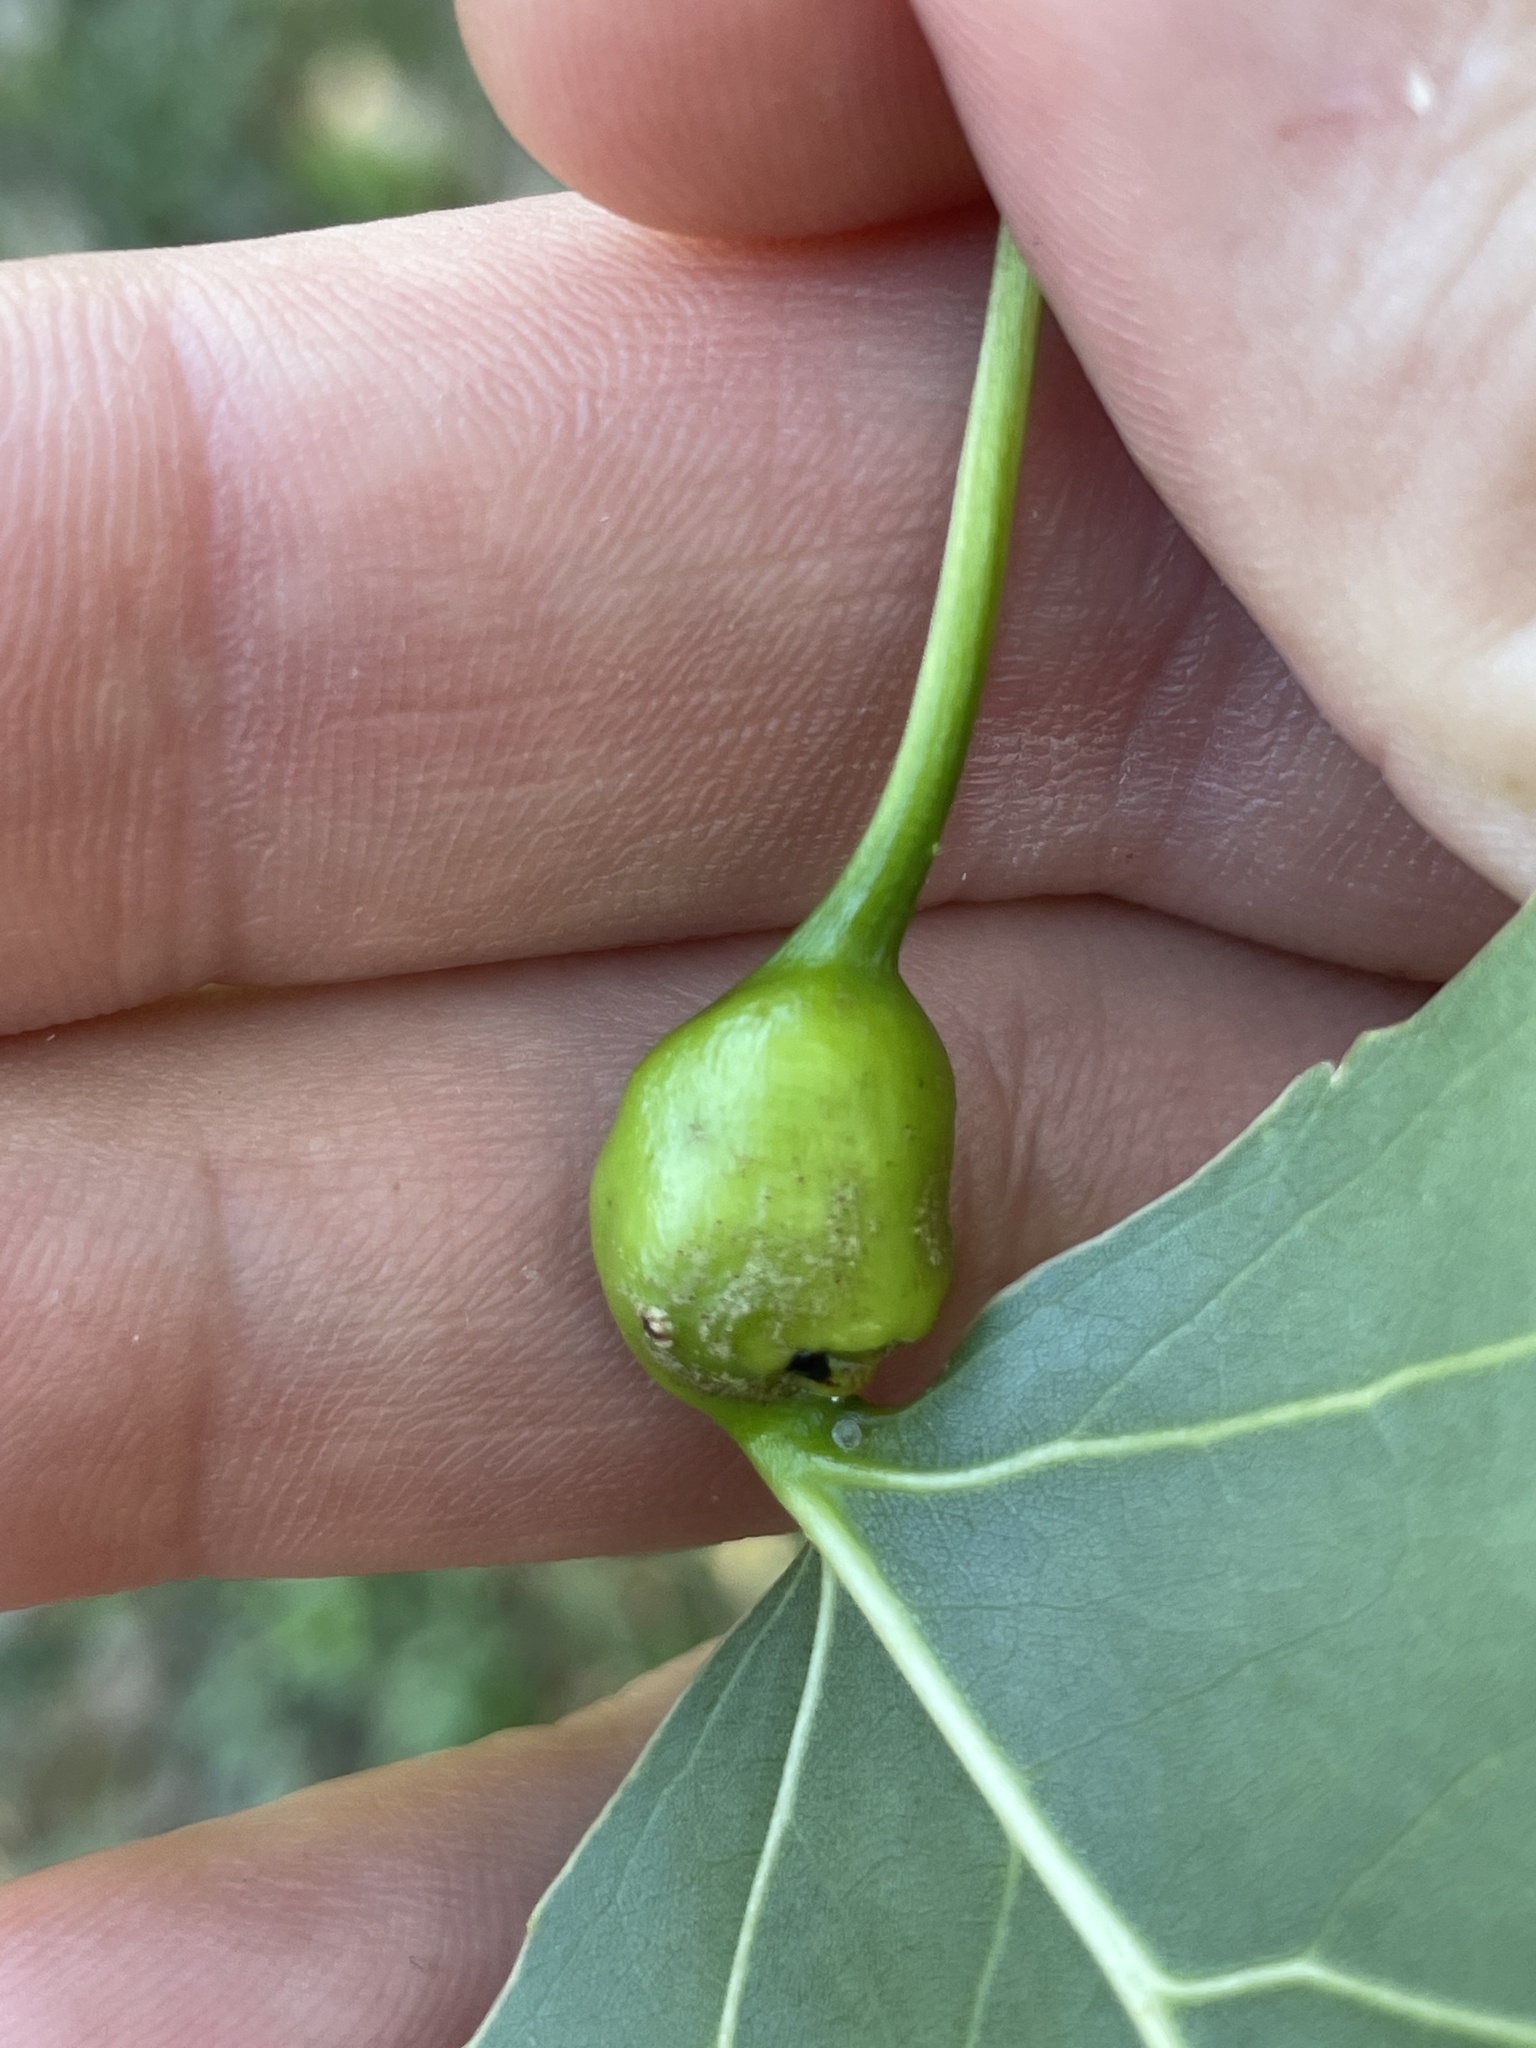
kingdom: Animalia
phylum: Arthropoda
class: Insecta
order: Hemiptera
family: Aphididae
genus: Pemphigus
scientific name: Pemphigus obesinymphae
